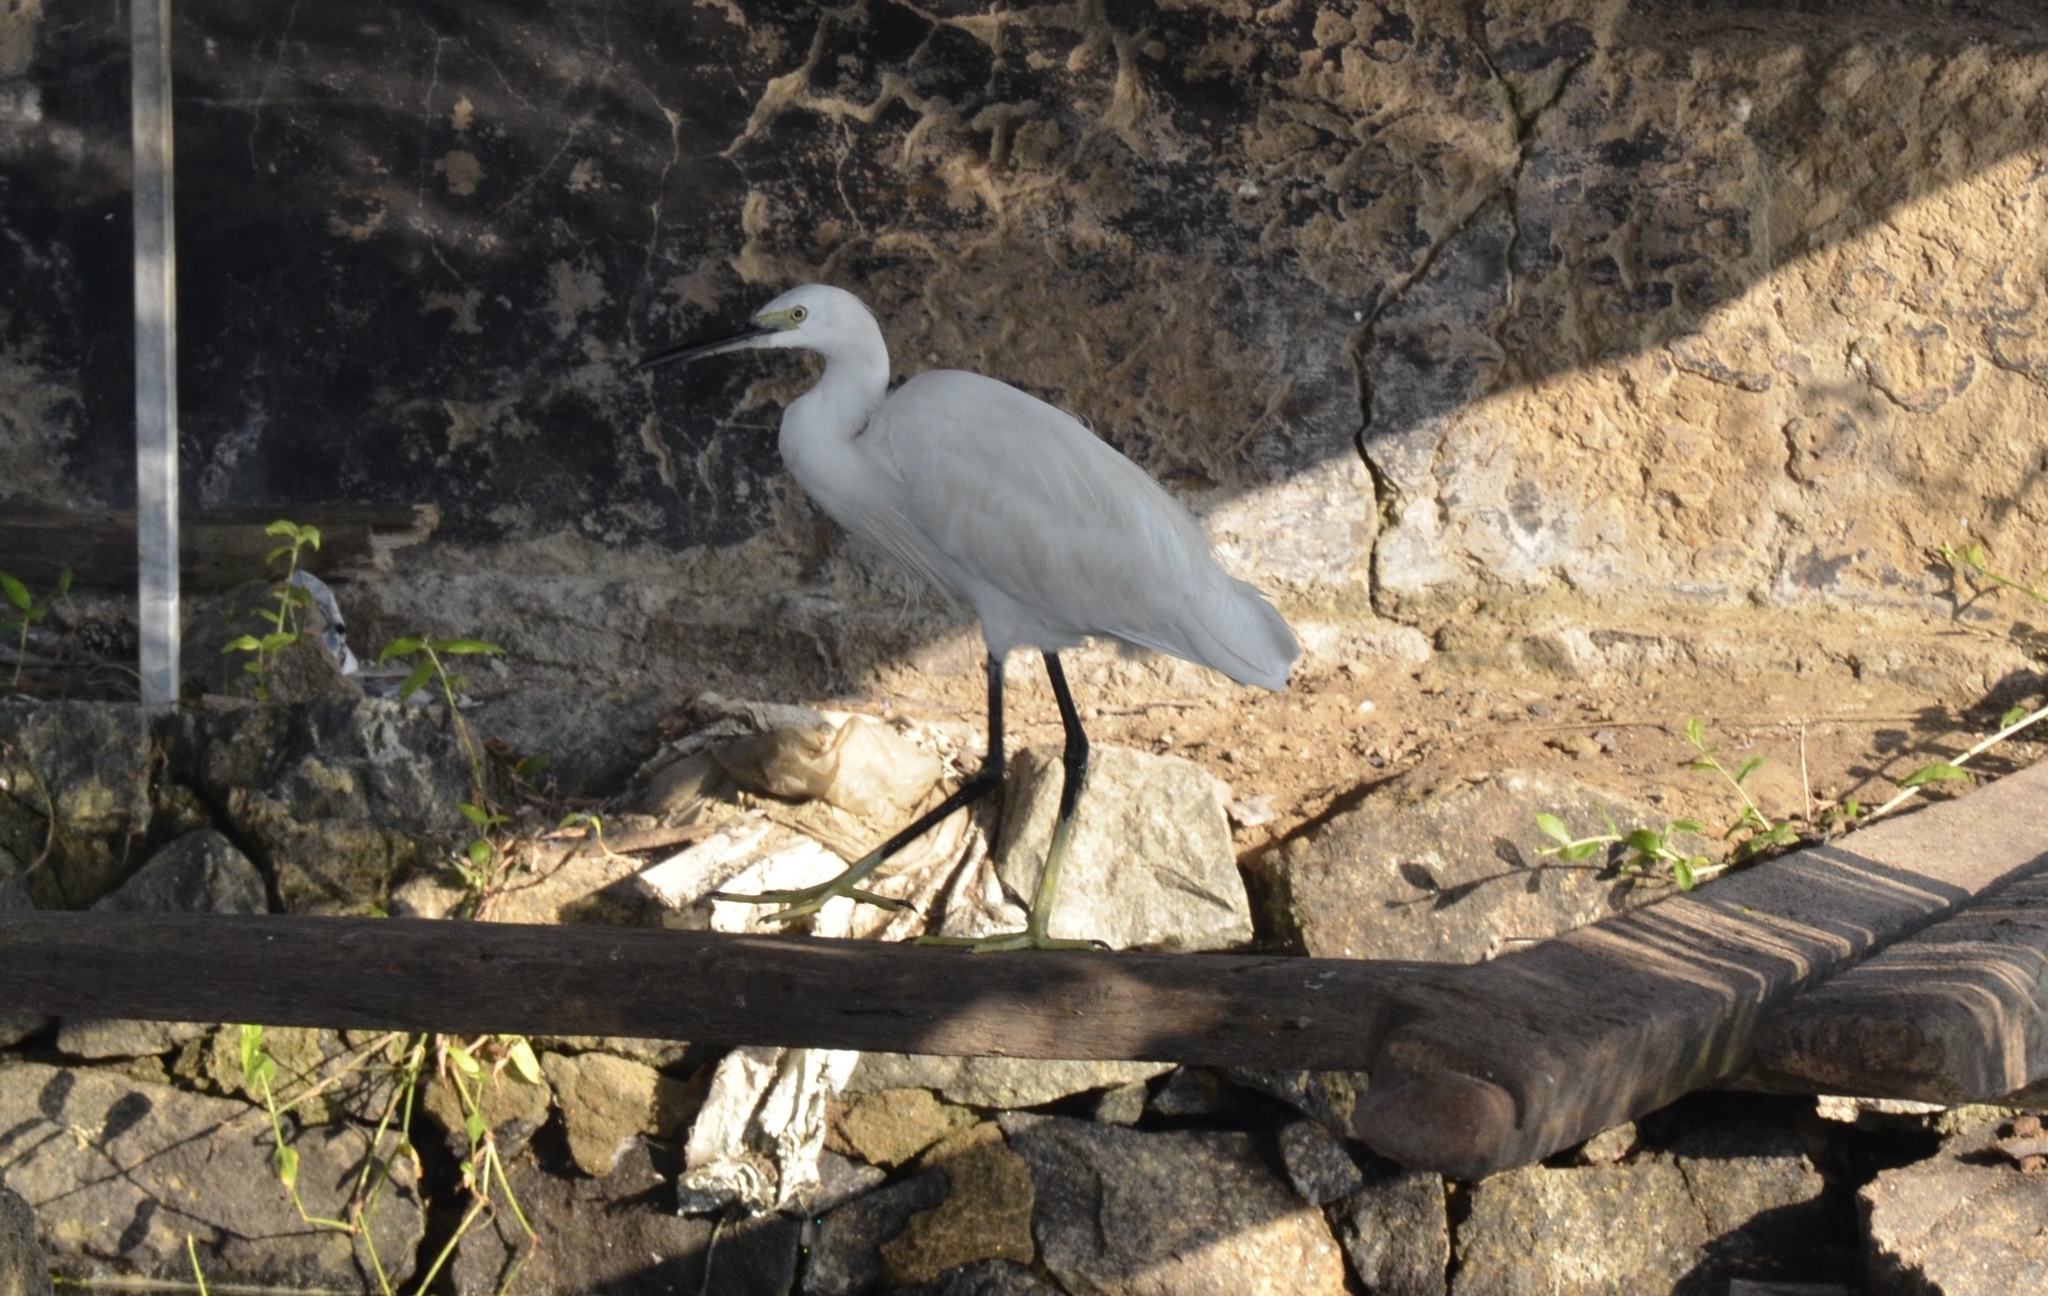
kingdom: Animalia
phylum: Chordata
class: Aves
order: Pelecaniformes
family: Ardeidae
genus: Egretta
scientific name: Egretta garzetta
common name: Little egret
